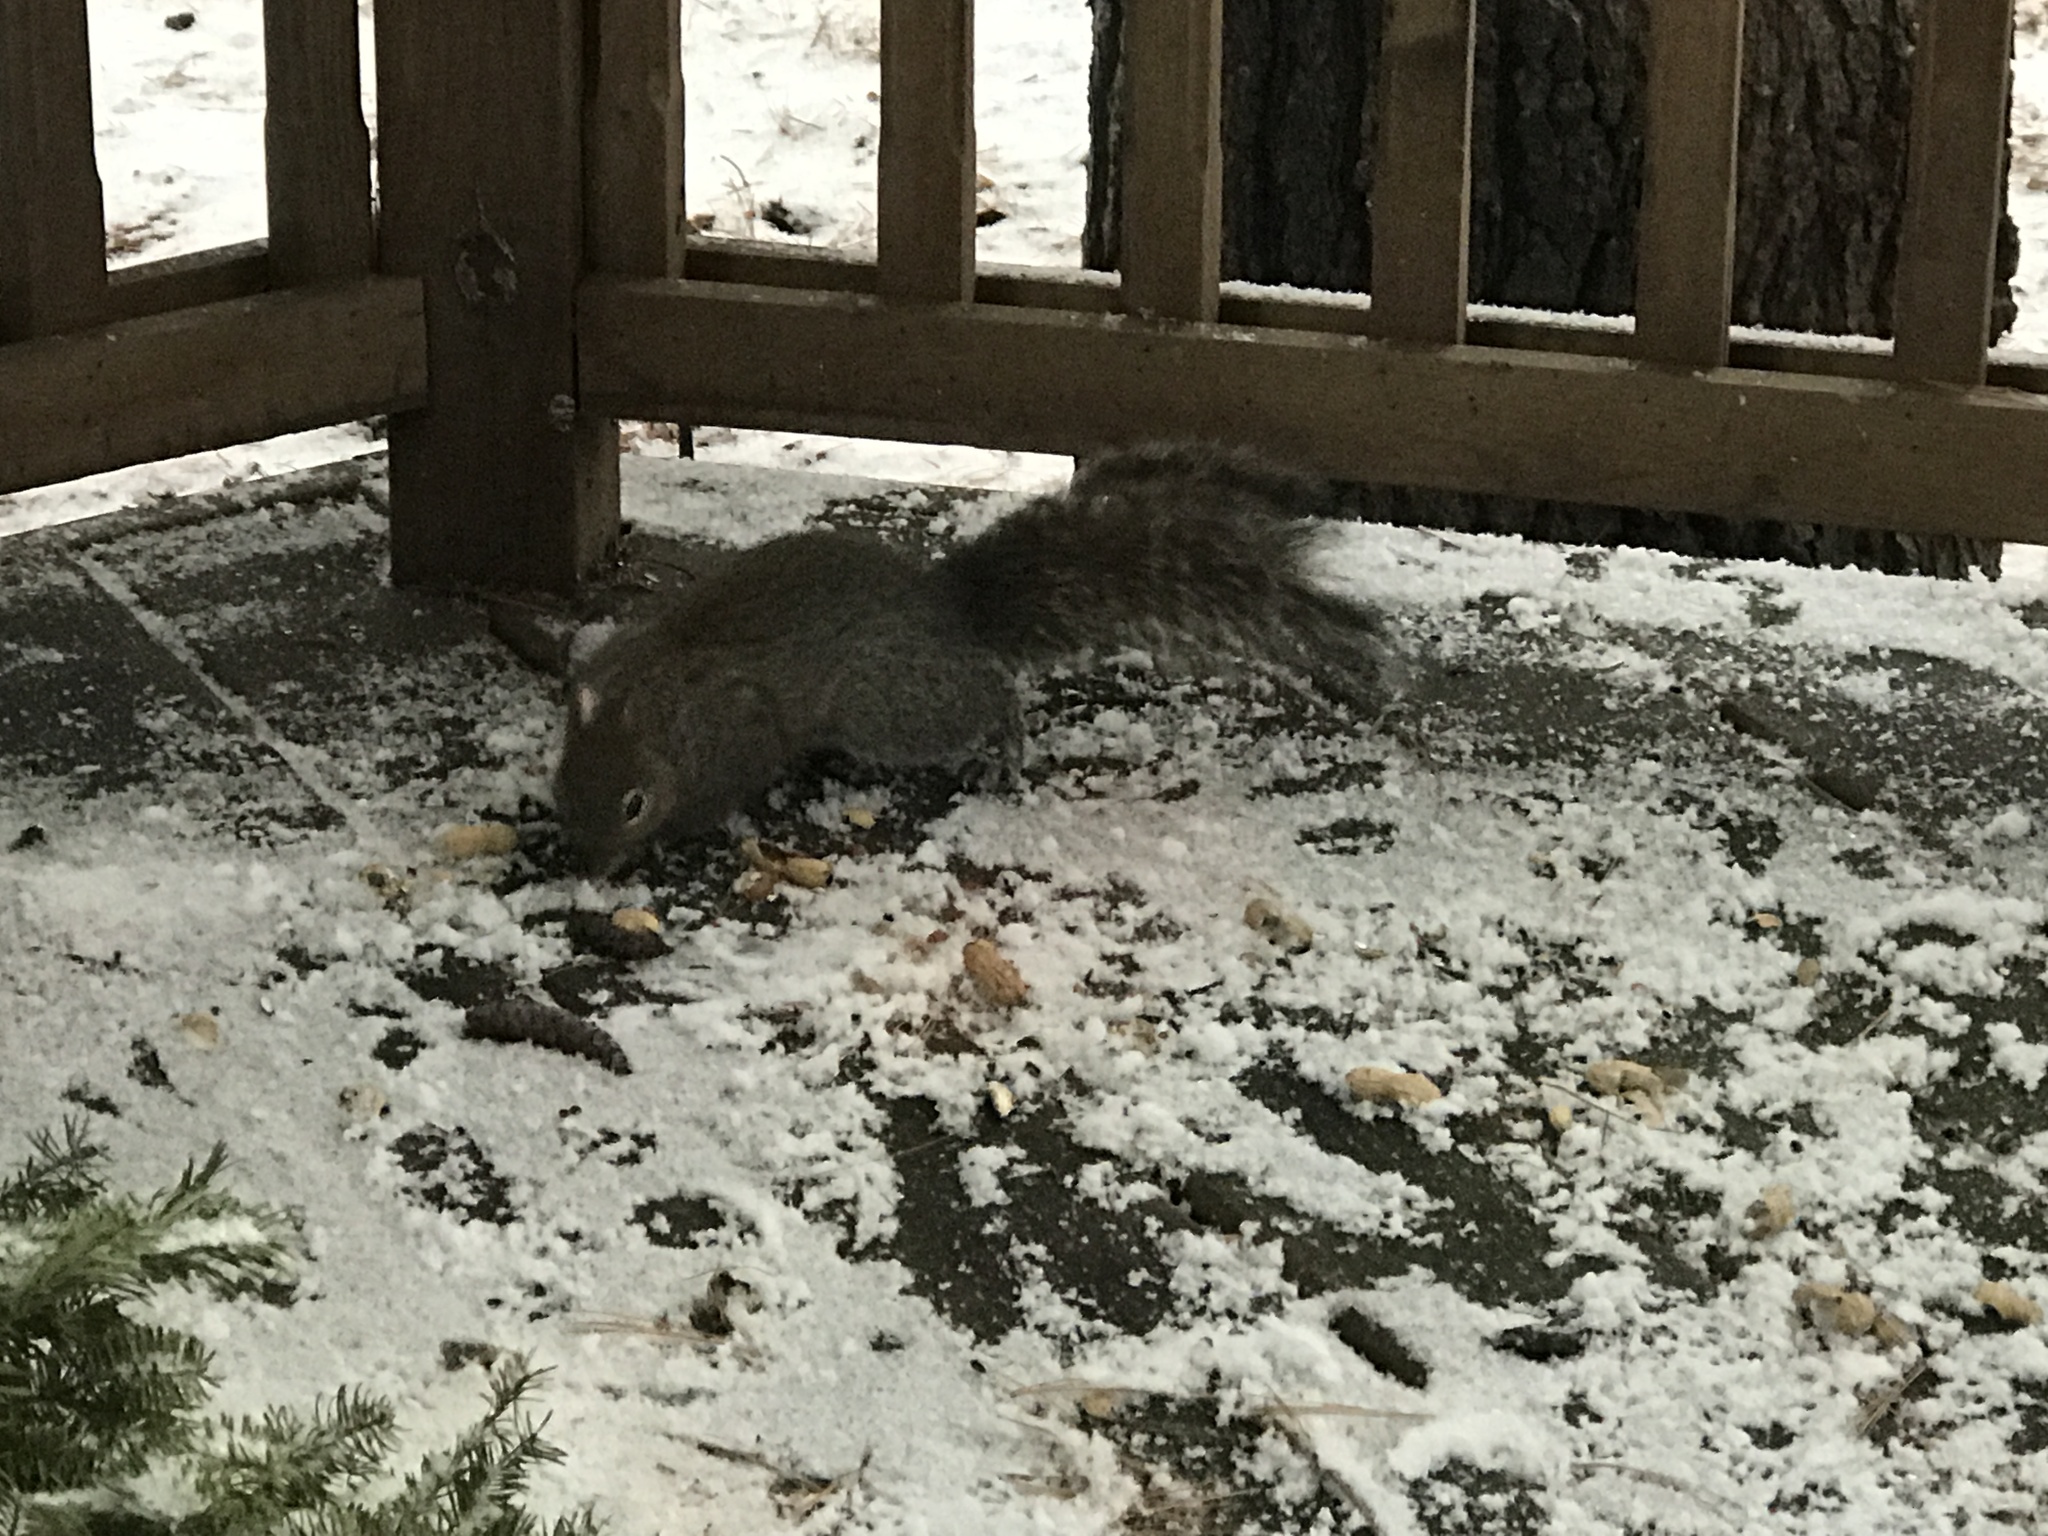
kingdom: Animalia
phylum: Chordata
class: Mammalia
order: Rodentia
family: Sciuridae
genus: Sciurus
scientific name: Sciurus carolinensis
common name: Eastern gray squirrel
